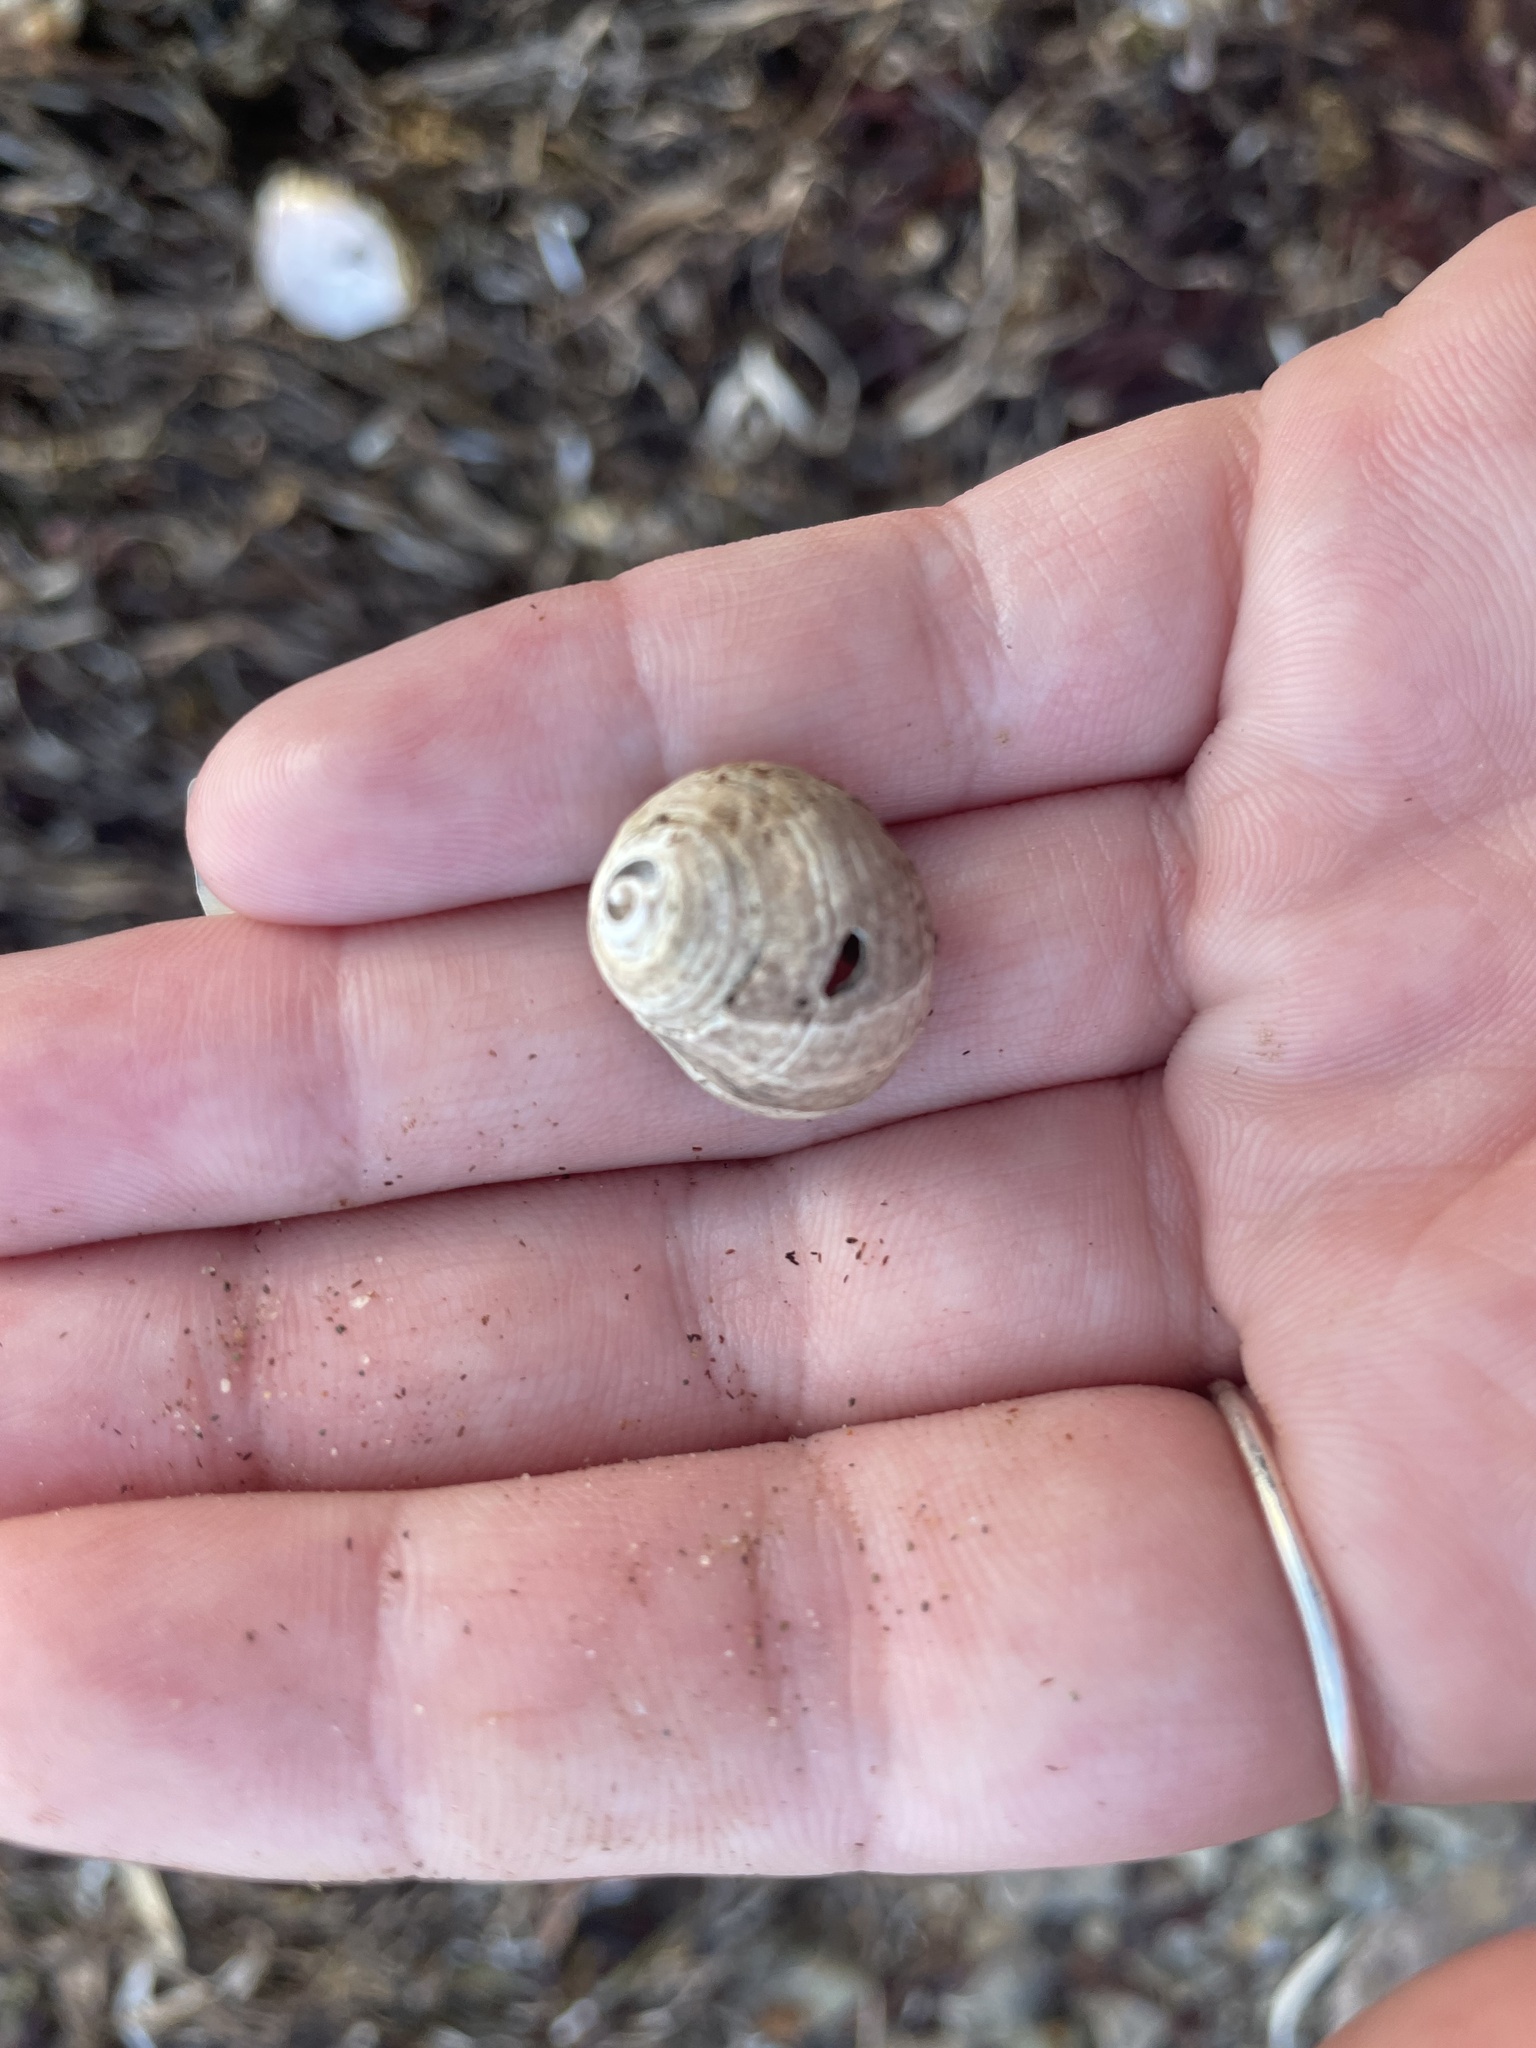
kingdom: Animalia
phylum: Mollusca
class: Gastropoda
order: Littorinimorpha
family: Littorinidae
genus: Littorina
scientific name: Littorina littorea
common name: Common periwinkle
